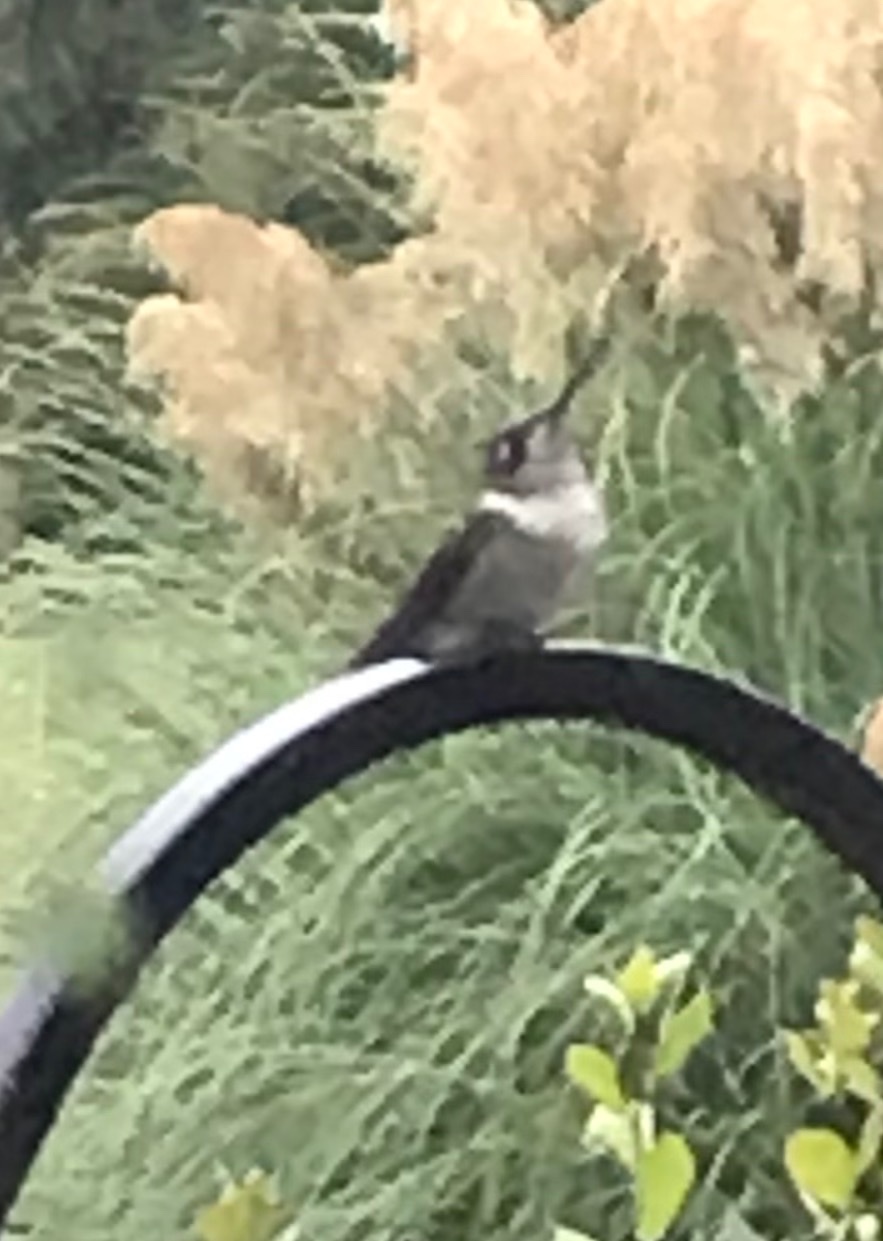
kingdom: Animalia
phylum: Chordata
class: Aves
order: Apodiformes
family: Trochilidae
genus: Archilochus
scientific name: Archilochus colubris
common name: Ruby-throated hummingbird
